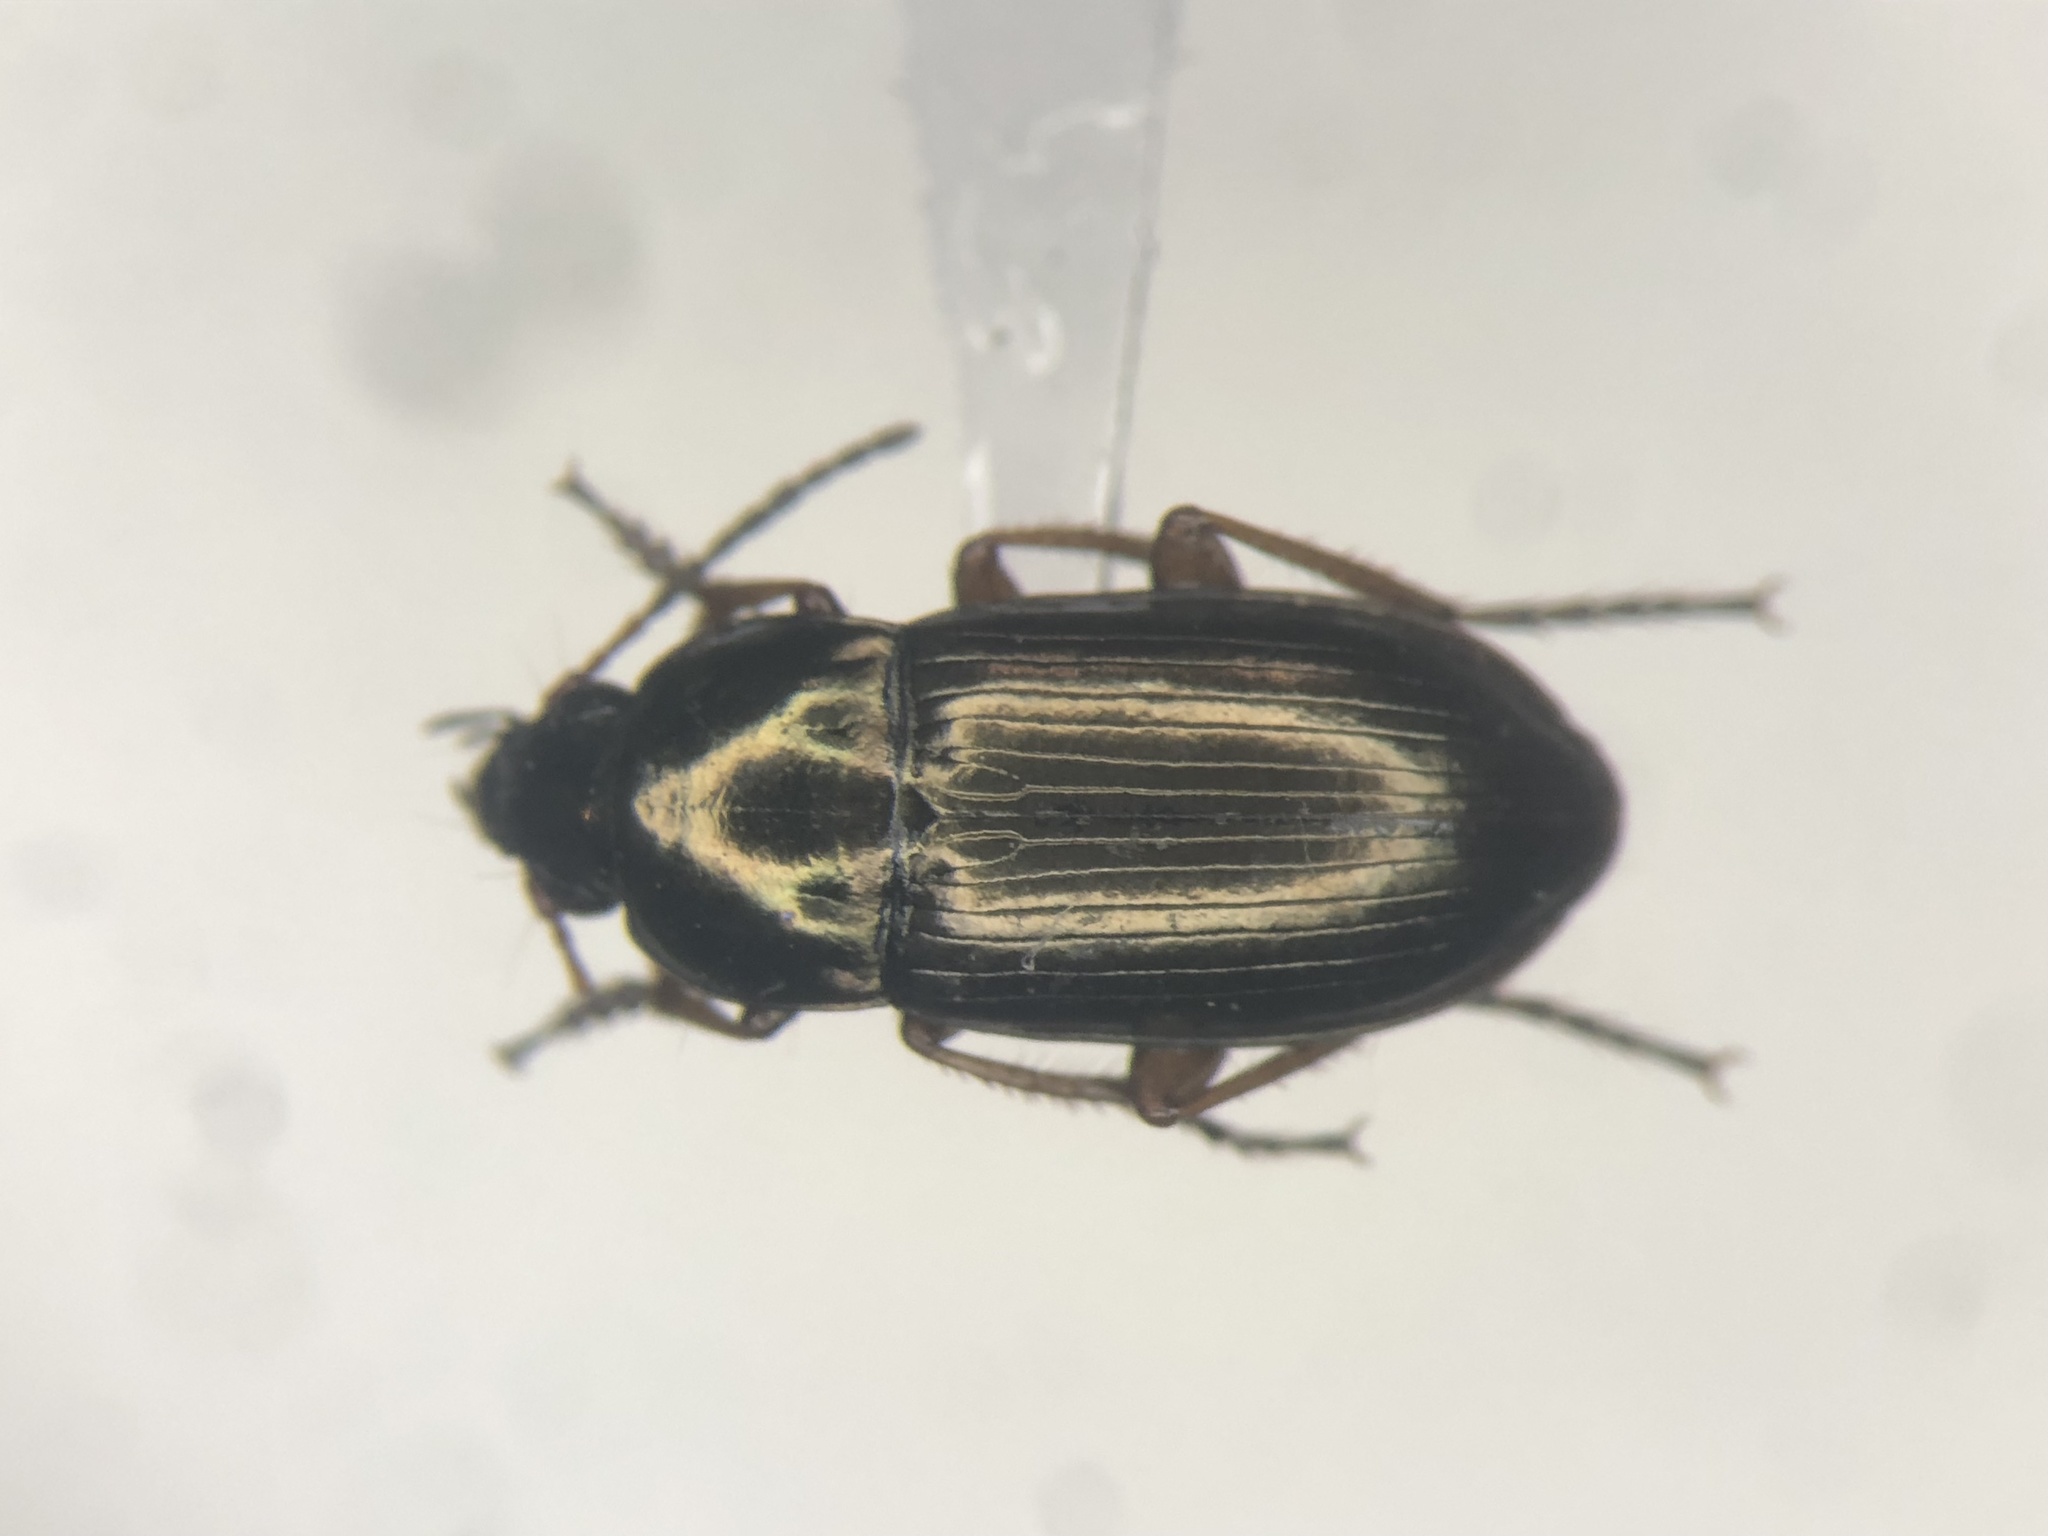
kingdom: Animalia
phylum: Arthropoda
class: Insecta
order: Coleoptera
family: Carabidae
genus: Amara
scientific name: Amara pallipes
